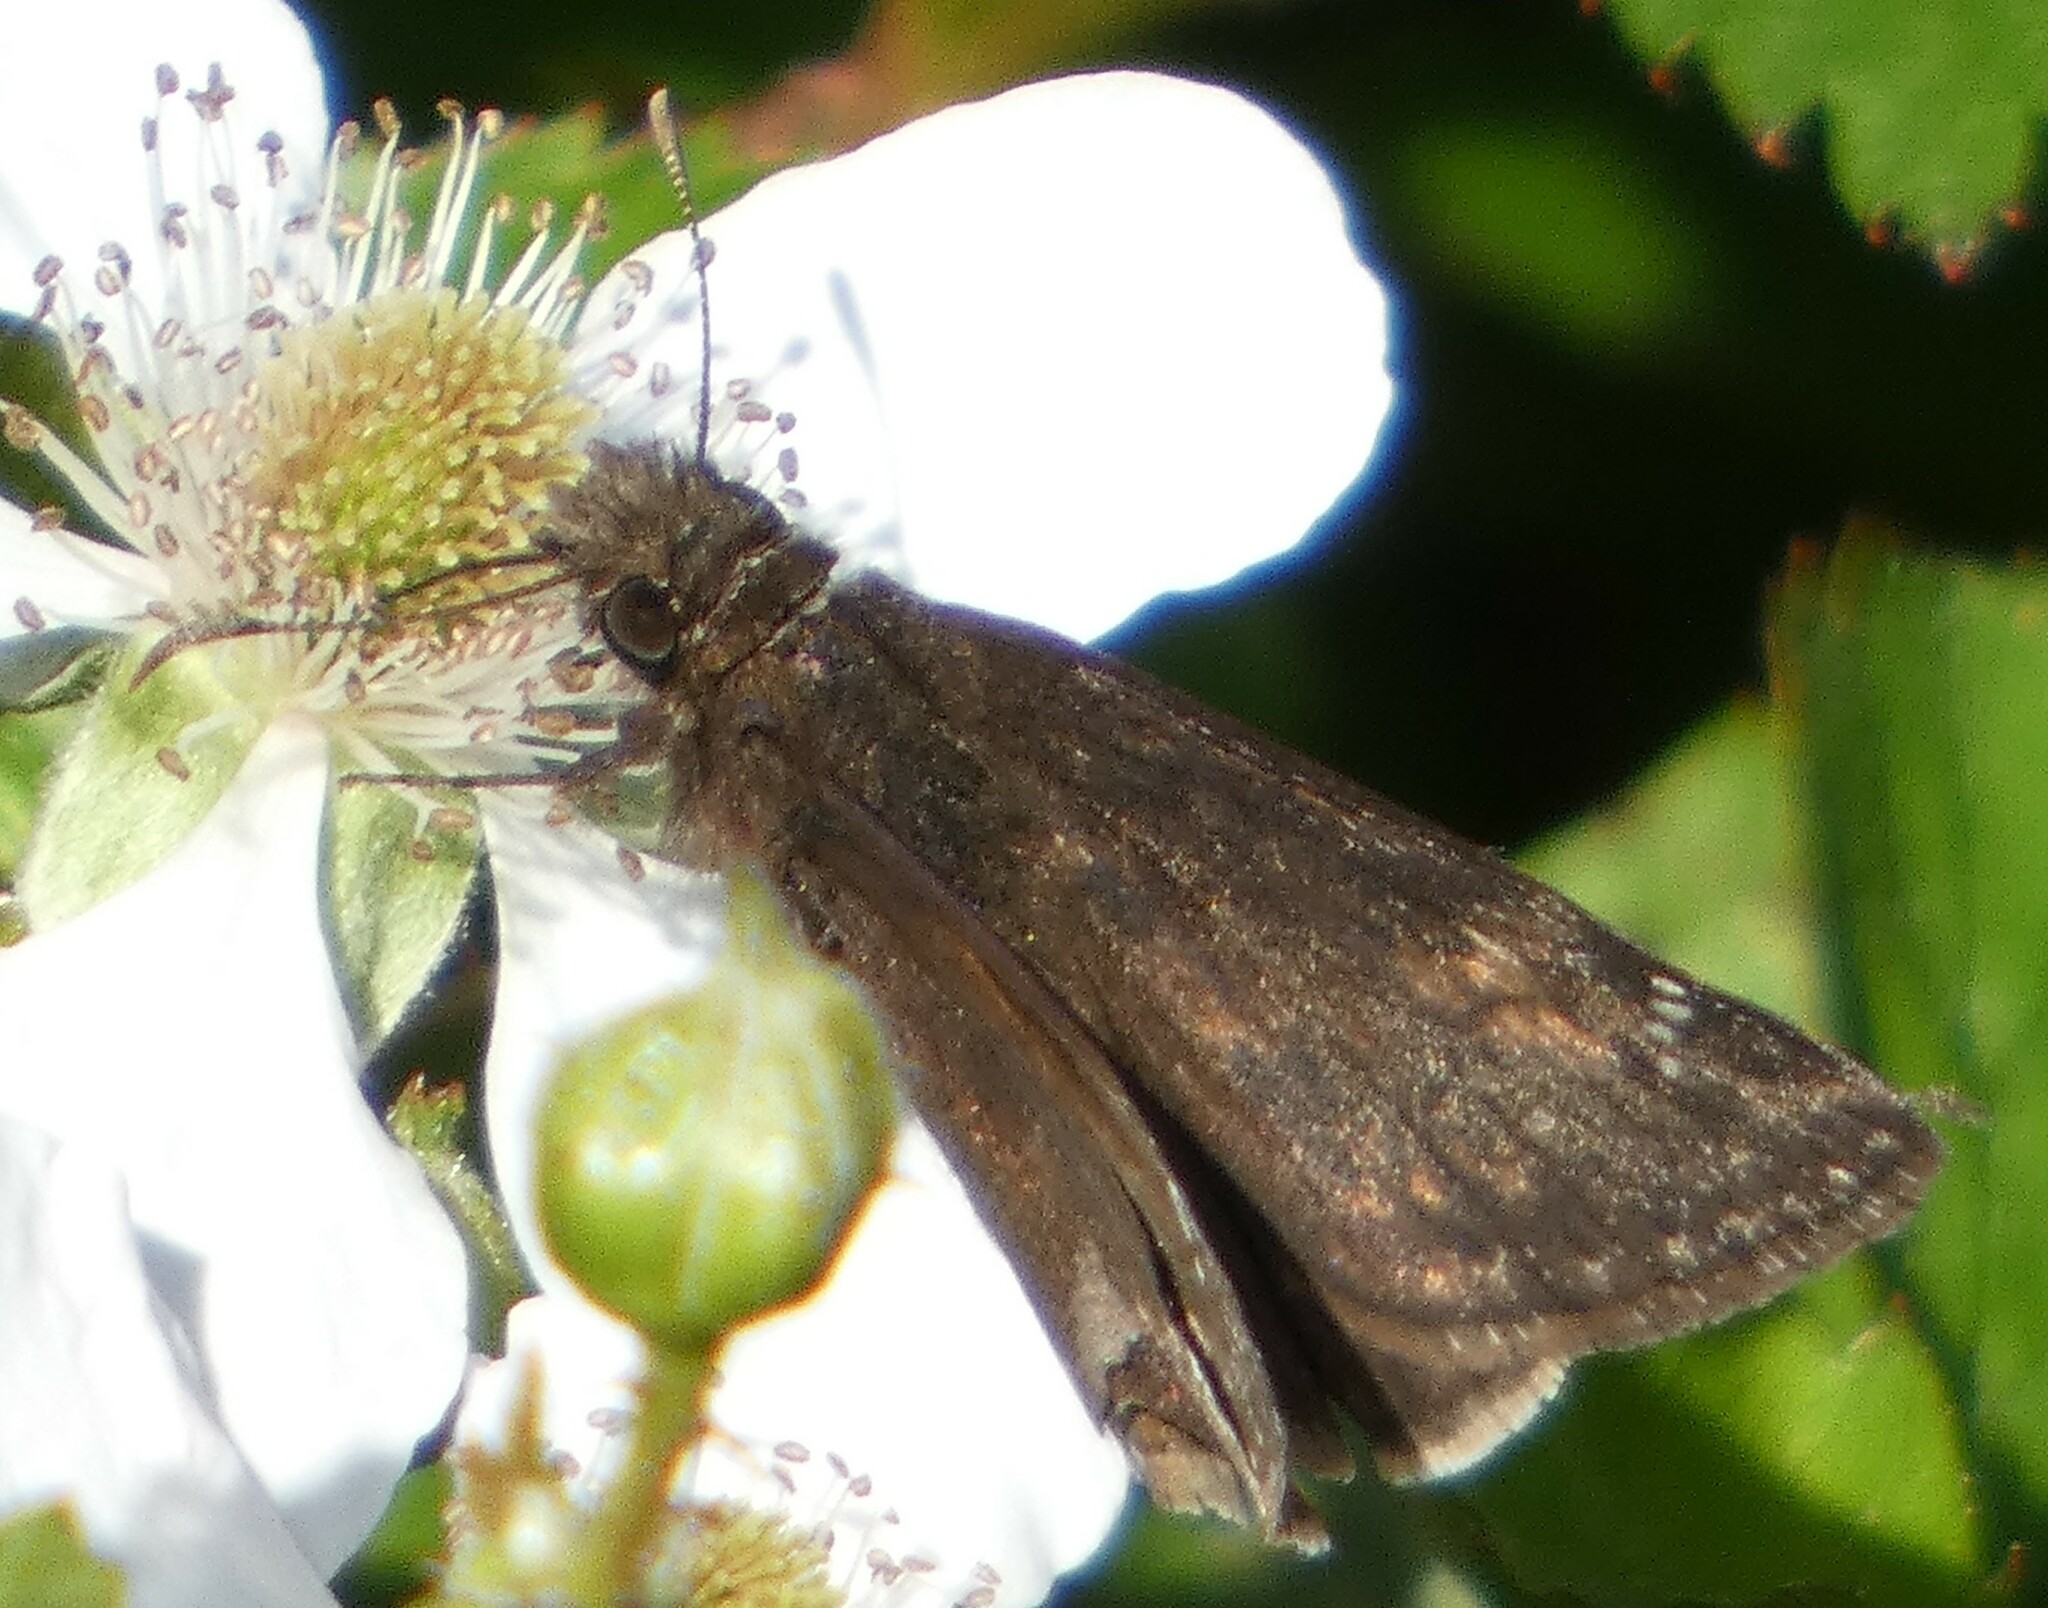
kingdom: Animalia
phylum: Arthropoda
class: Insecta
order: Lepidoptera
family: Hesperiidae
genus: Erynnis
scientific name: Erynnis zarucco
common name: Zarucco duskywing
